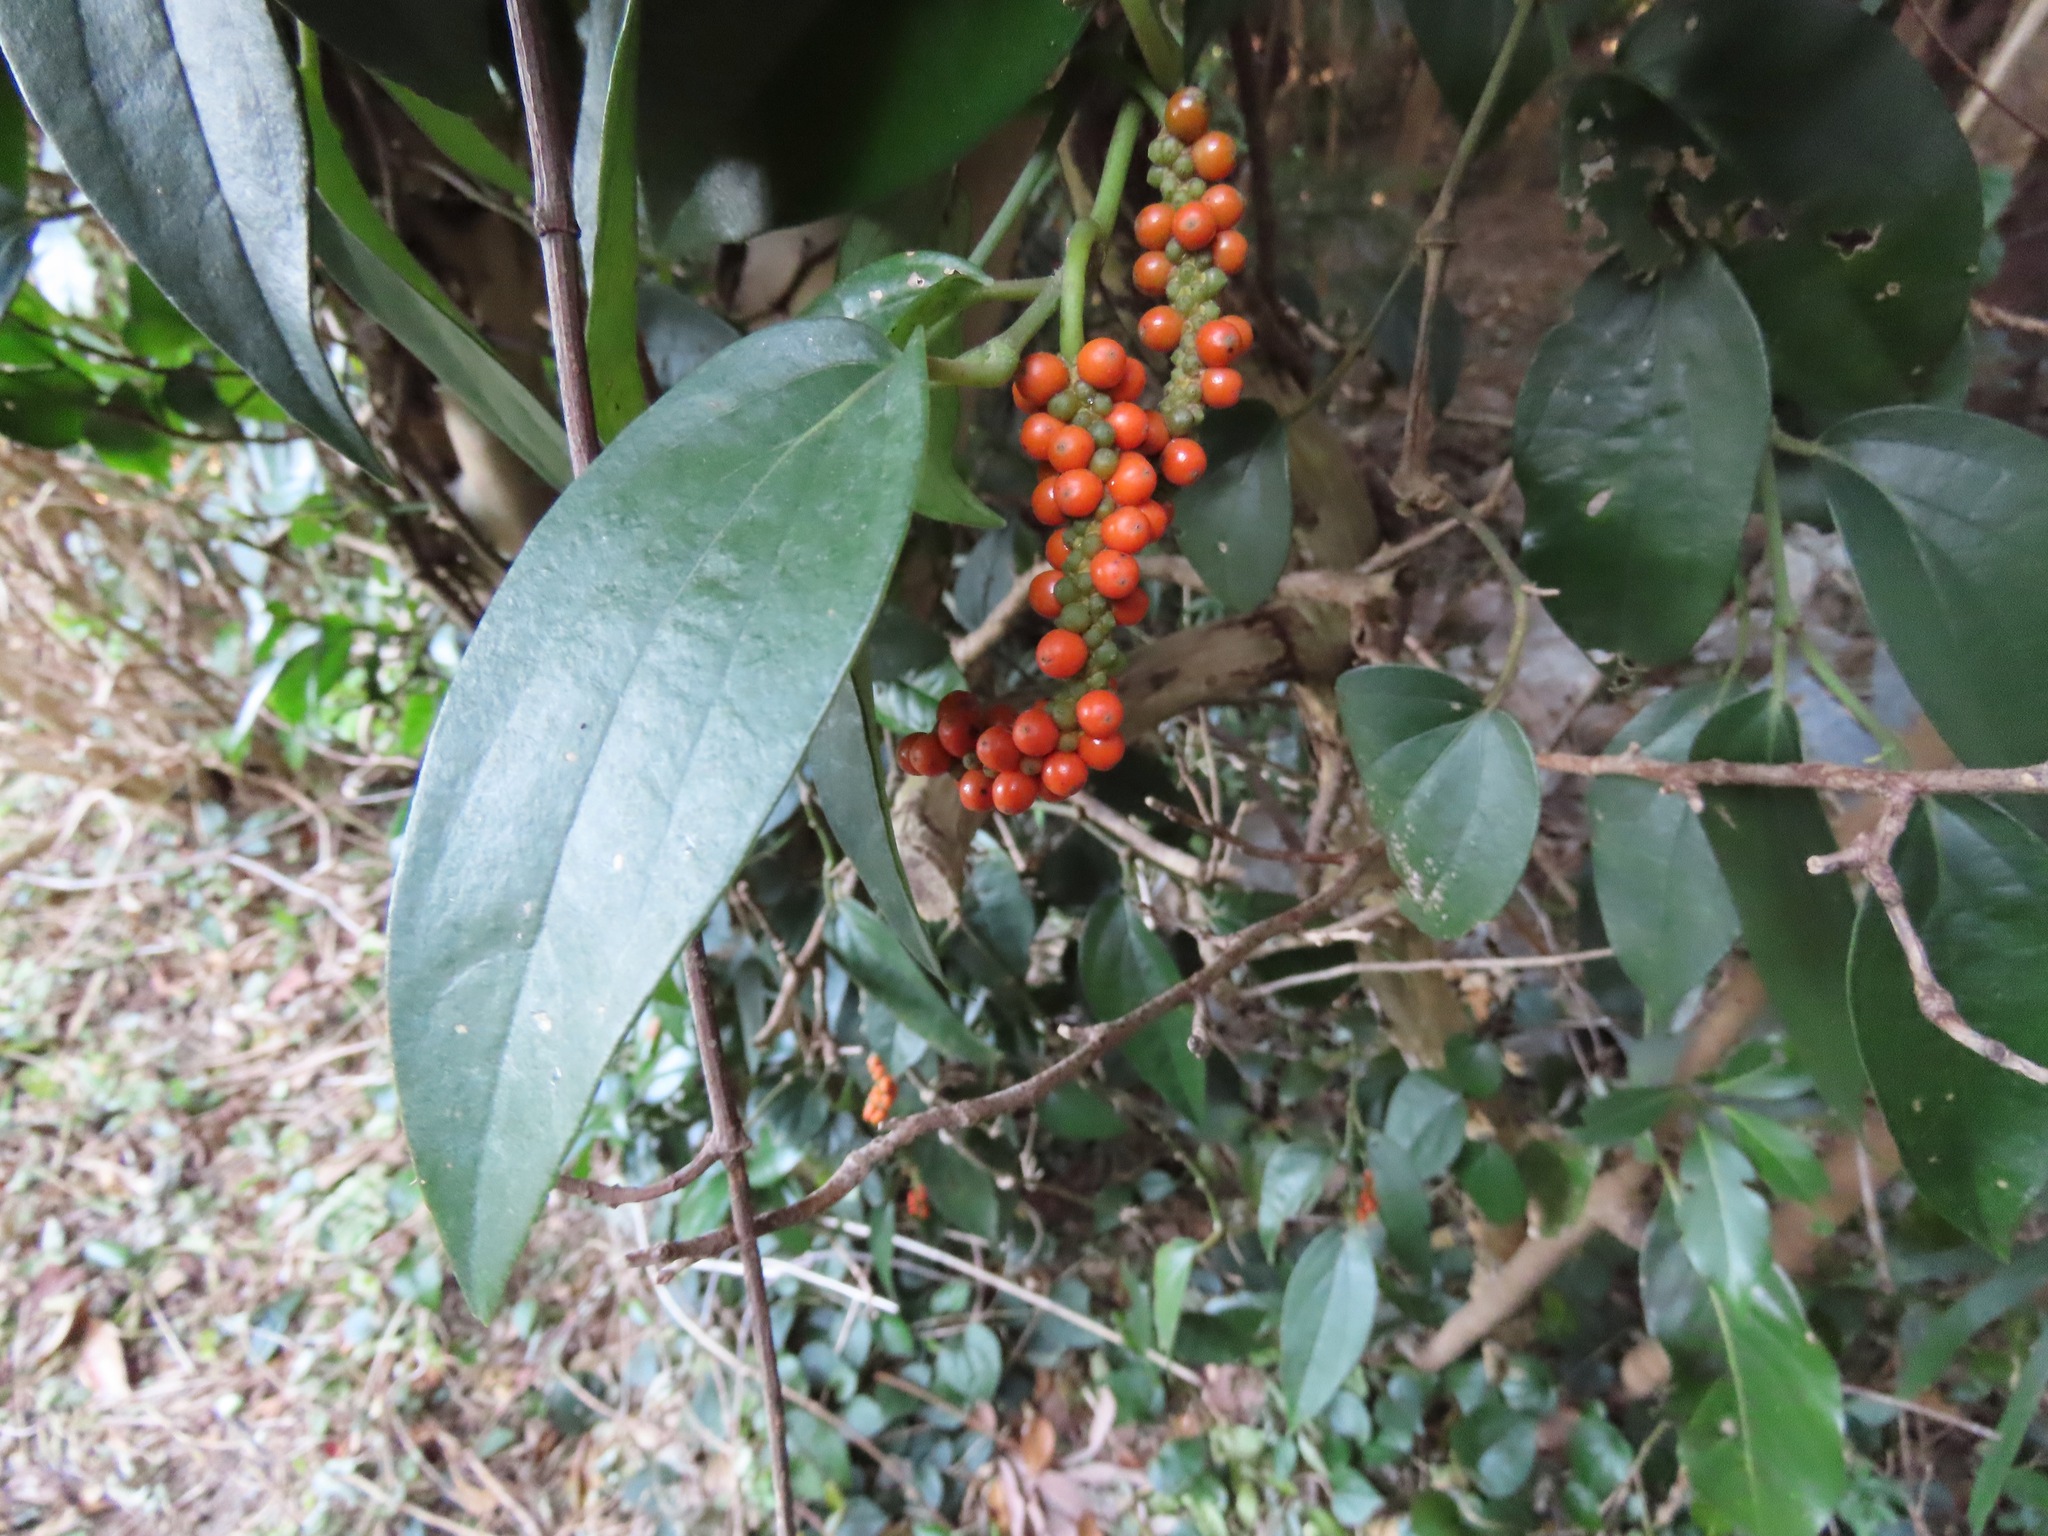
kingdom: Plantae
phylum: Tracheophyta
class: Magnoliopsida
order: Piperales
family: Piperaceae
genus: Piper
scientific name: Piper kadsura
